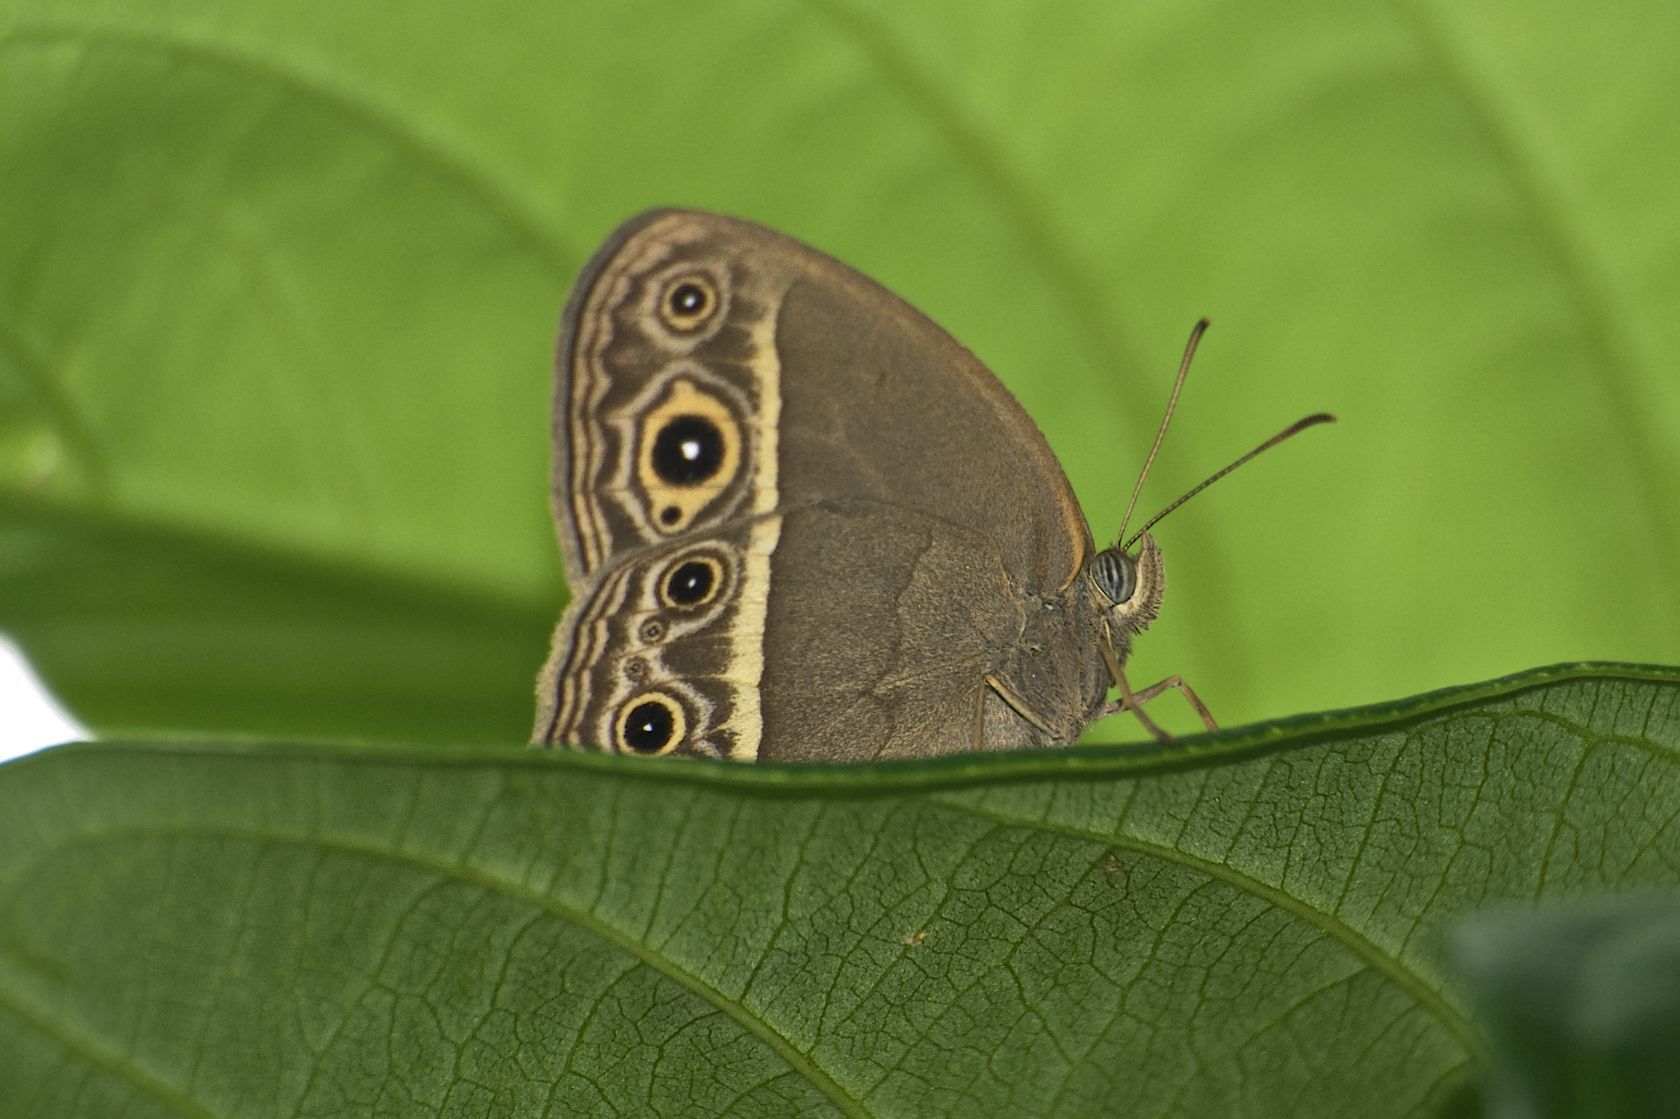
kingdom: Animalia
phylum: Arthropoda
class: Insecta
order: Lepidoptera
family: Nymphalidae
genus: Mycalesis
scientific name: Mycalesis mineus
